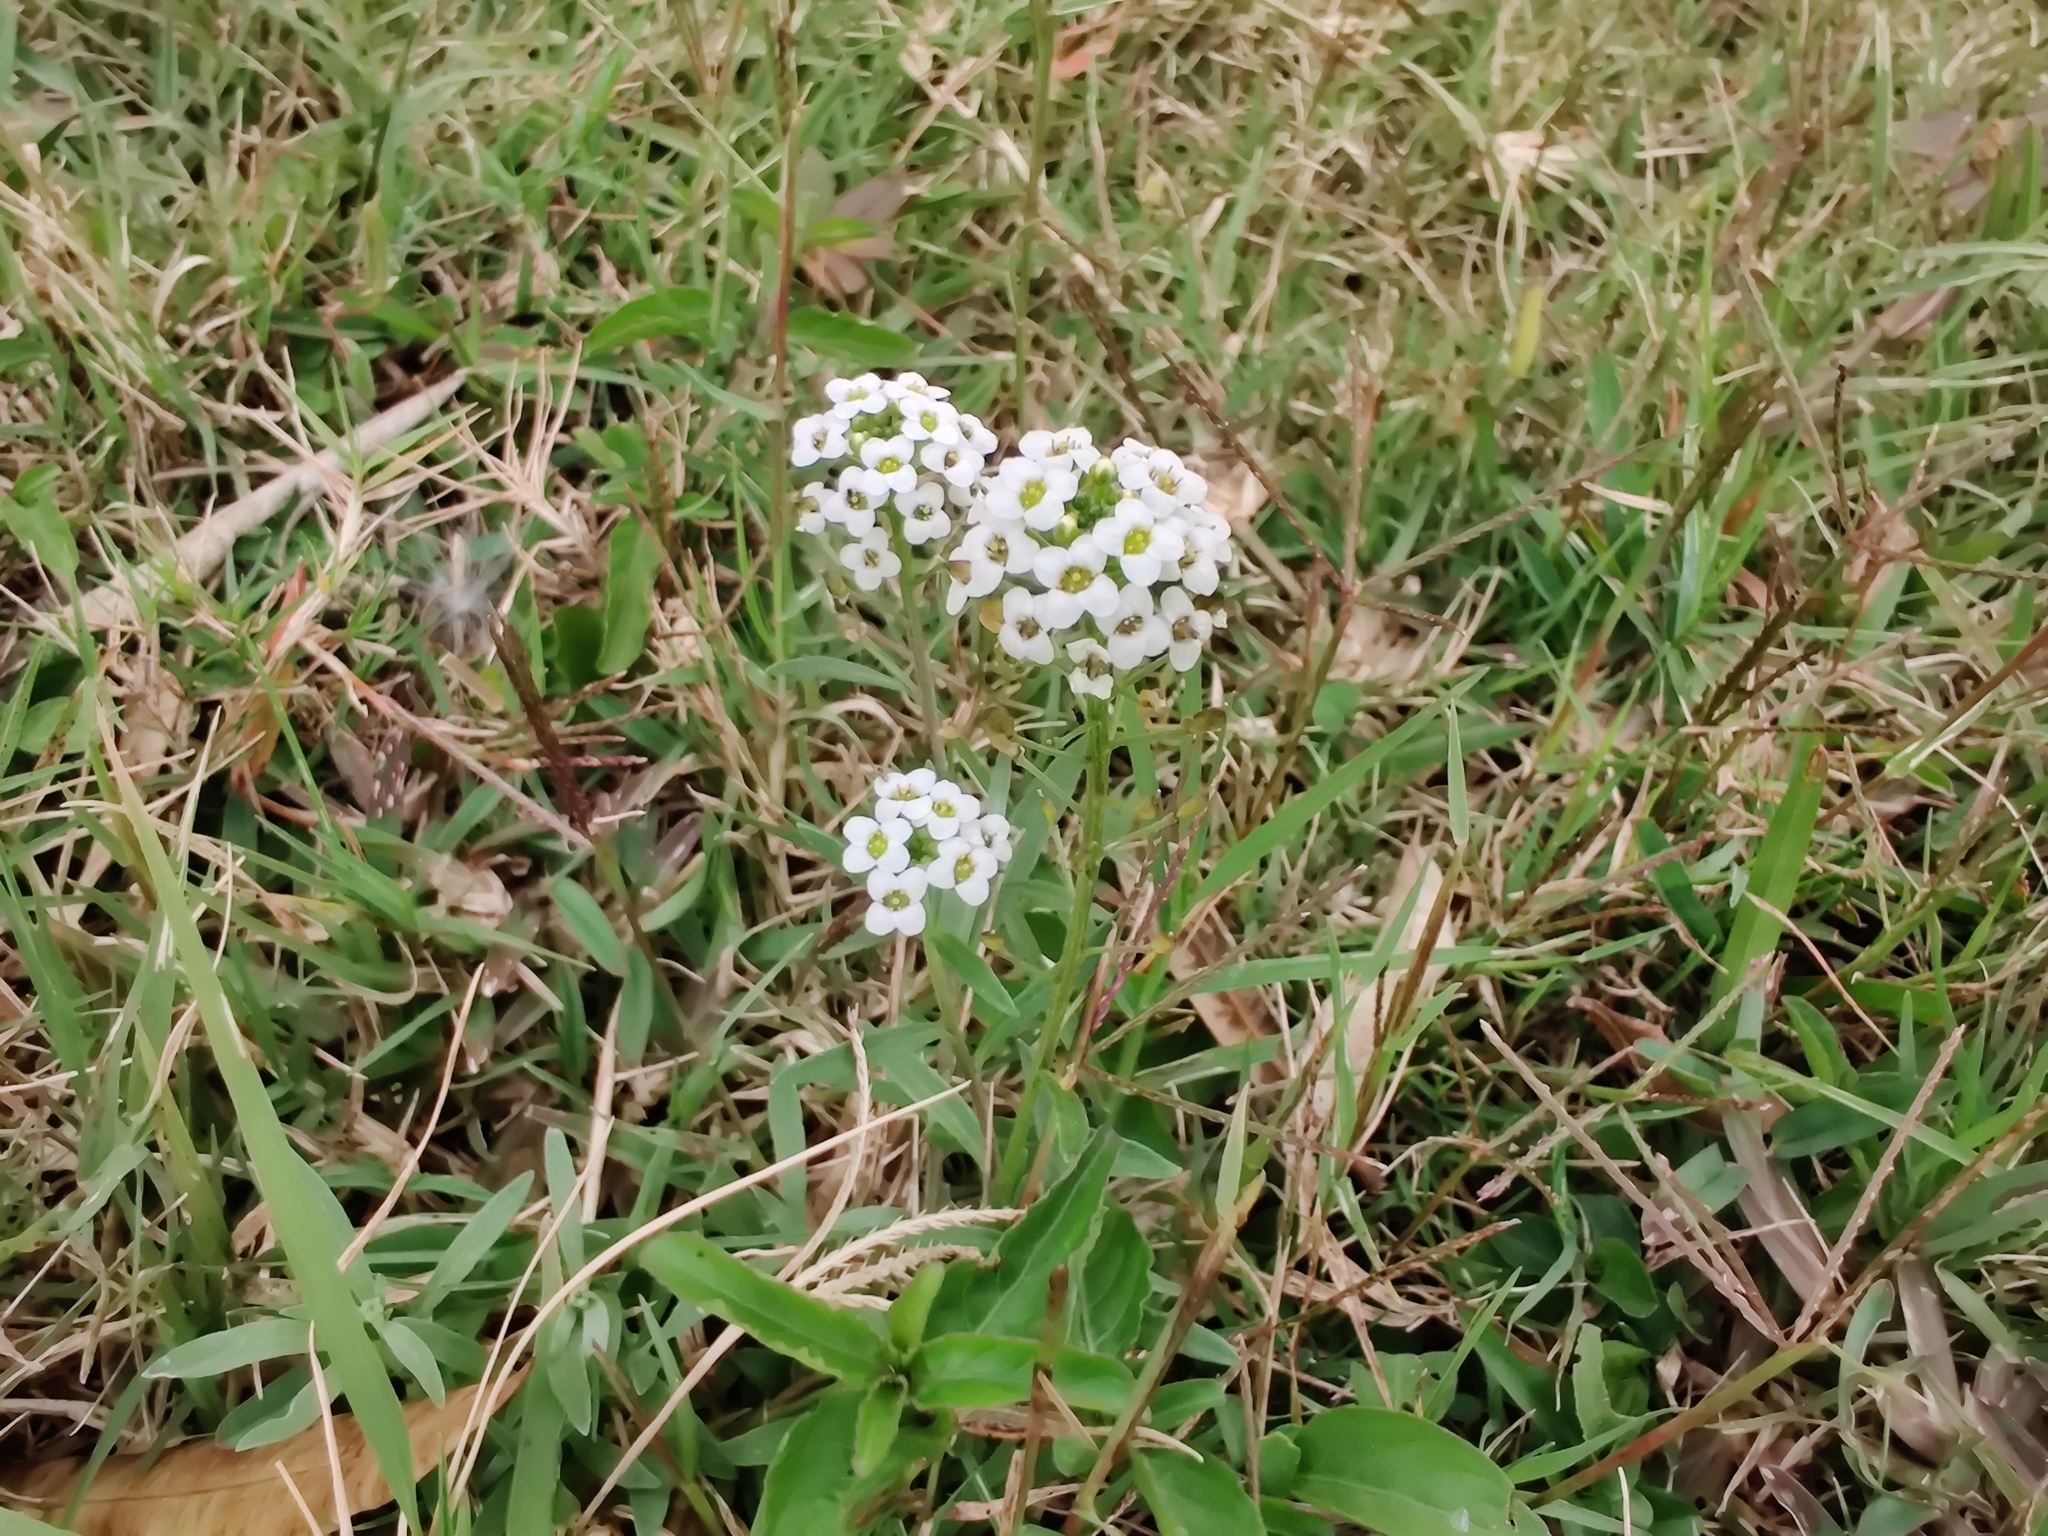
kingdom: Plantae
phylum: Tracheophyta
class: Magnoliopsida
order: Brassicales
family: Brassicaceae
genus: Lobularia
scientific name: Lobularia maritima
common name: Sweet alison
